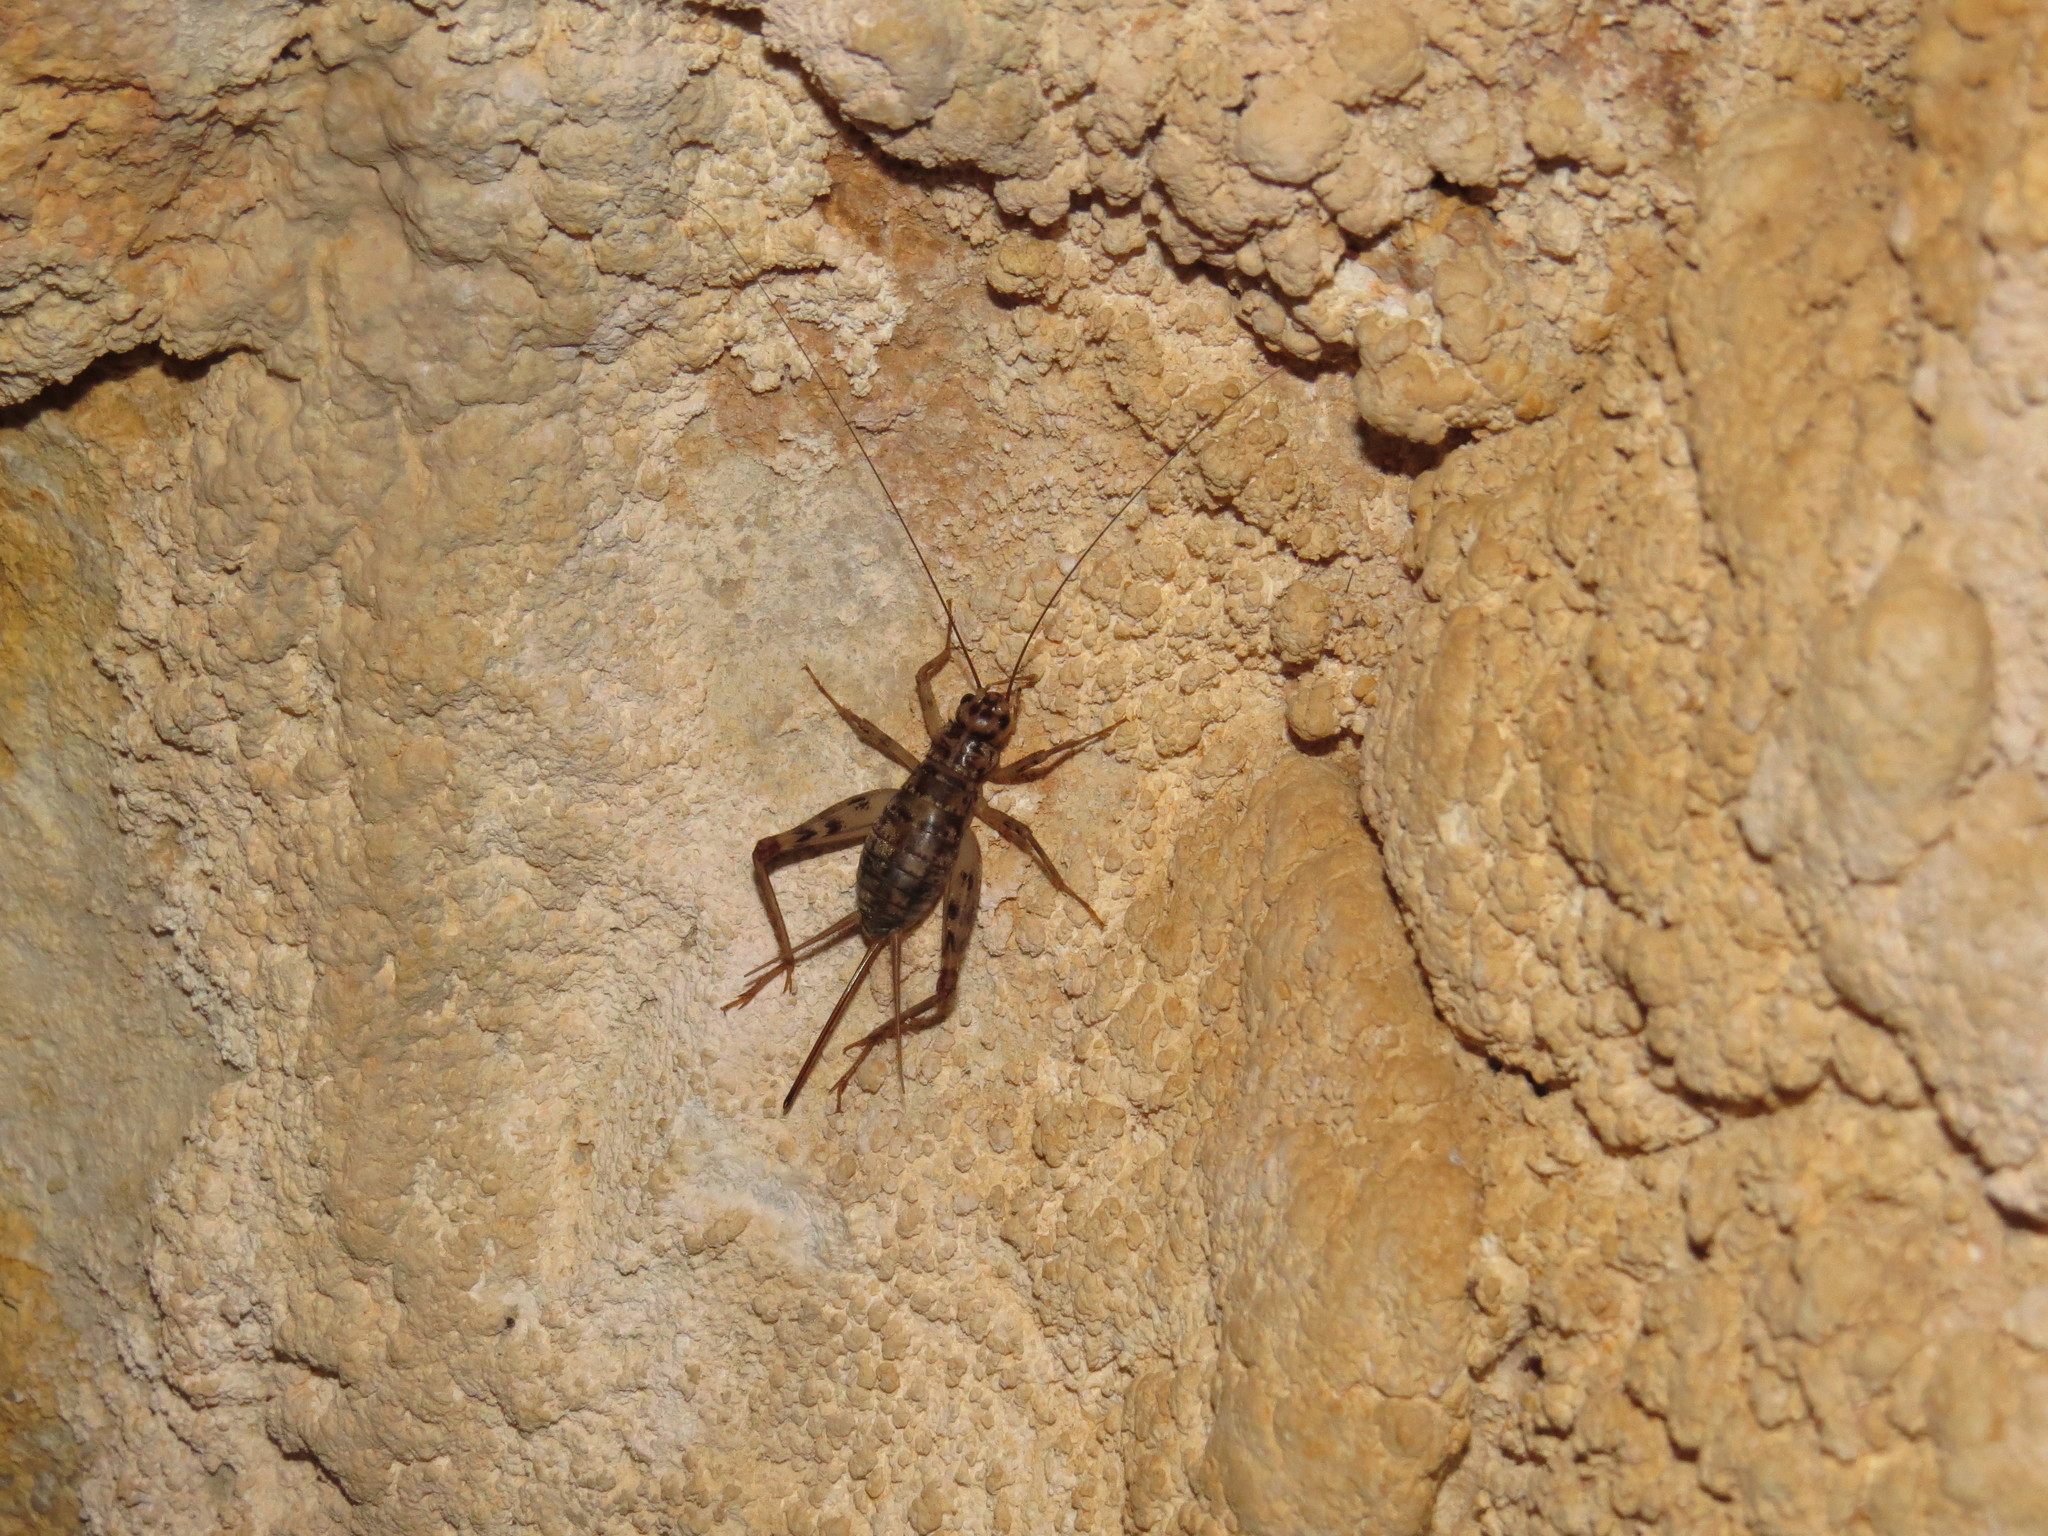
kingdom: Animalia
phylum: Arthropoda
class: Insecta
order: Orthoptera
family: Gryllidae
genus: Gryllomorpha
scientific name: Gryllomorpha dalmatina
